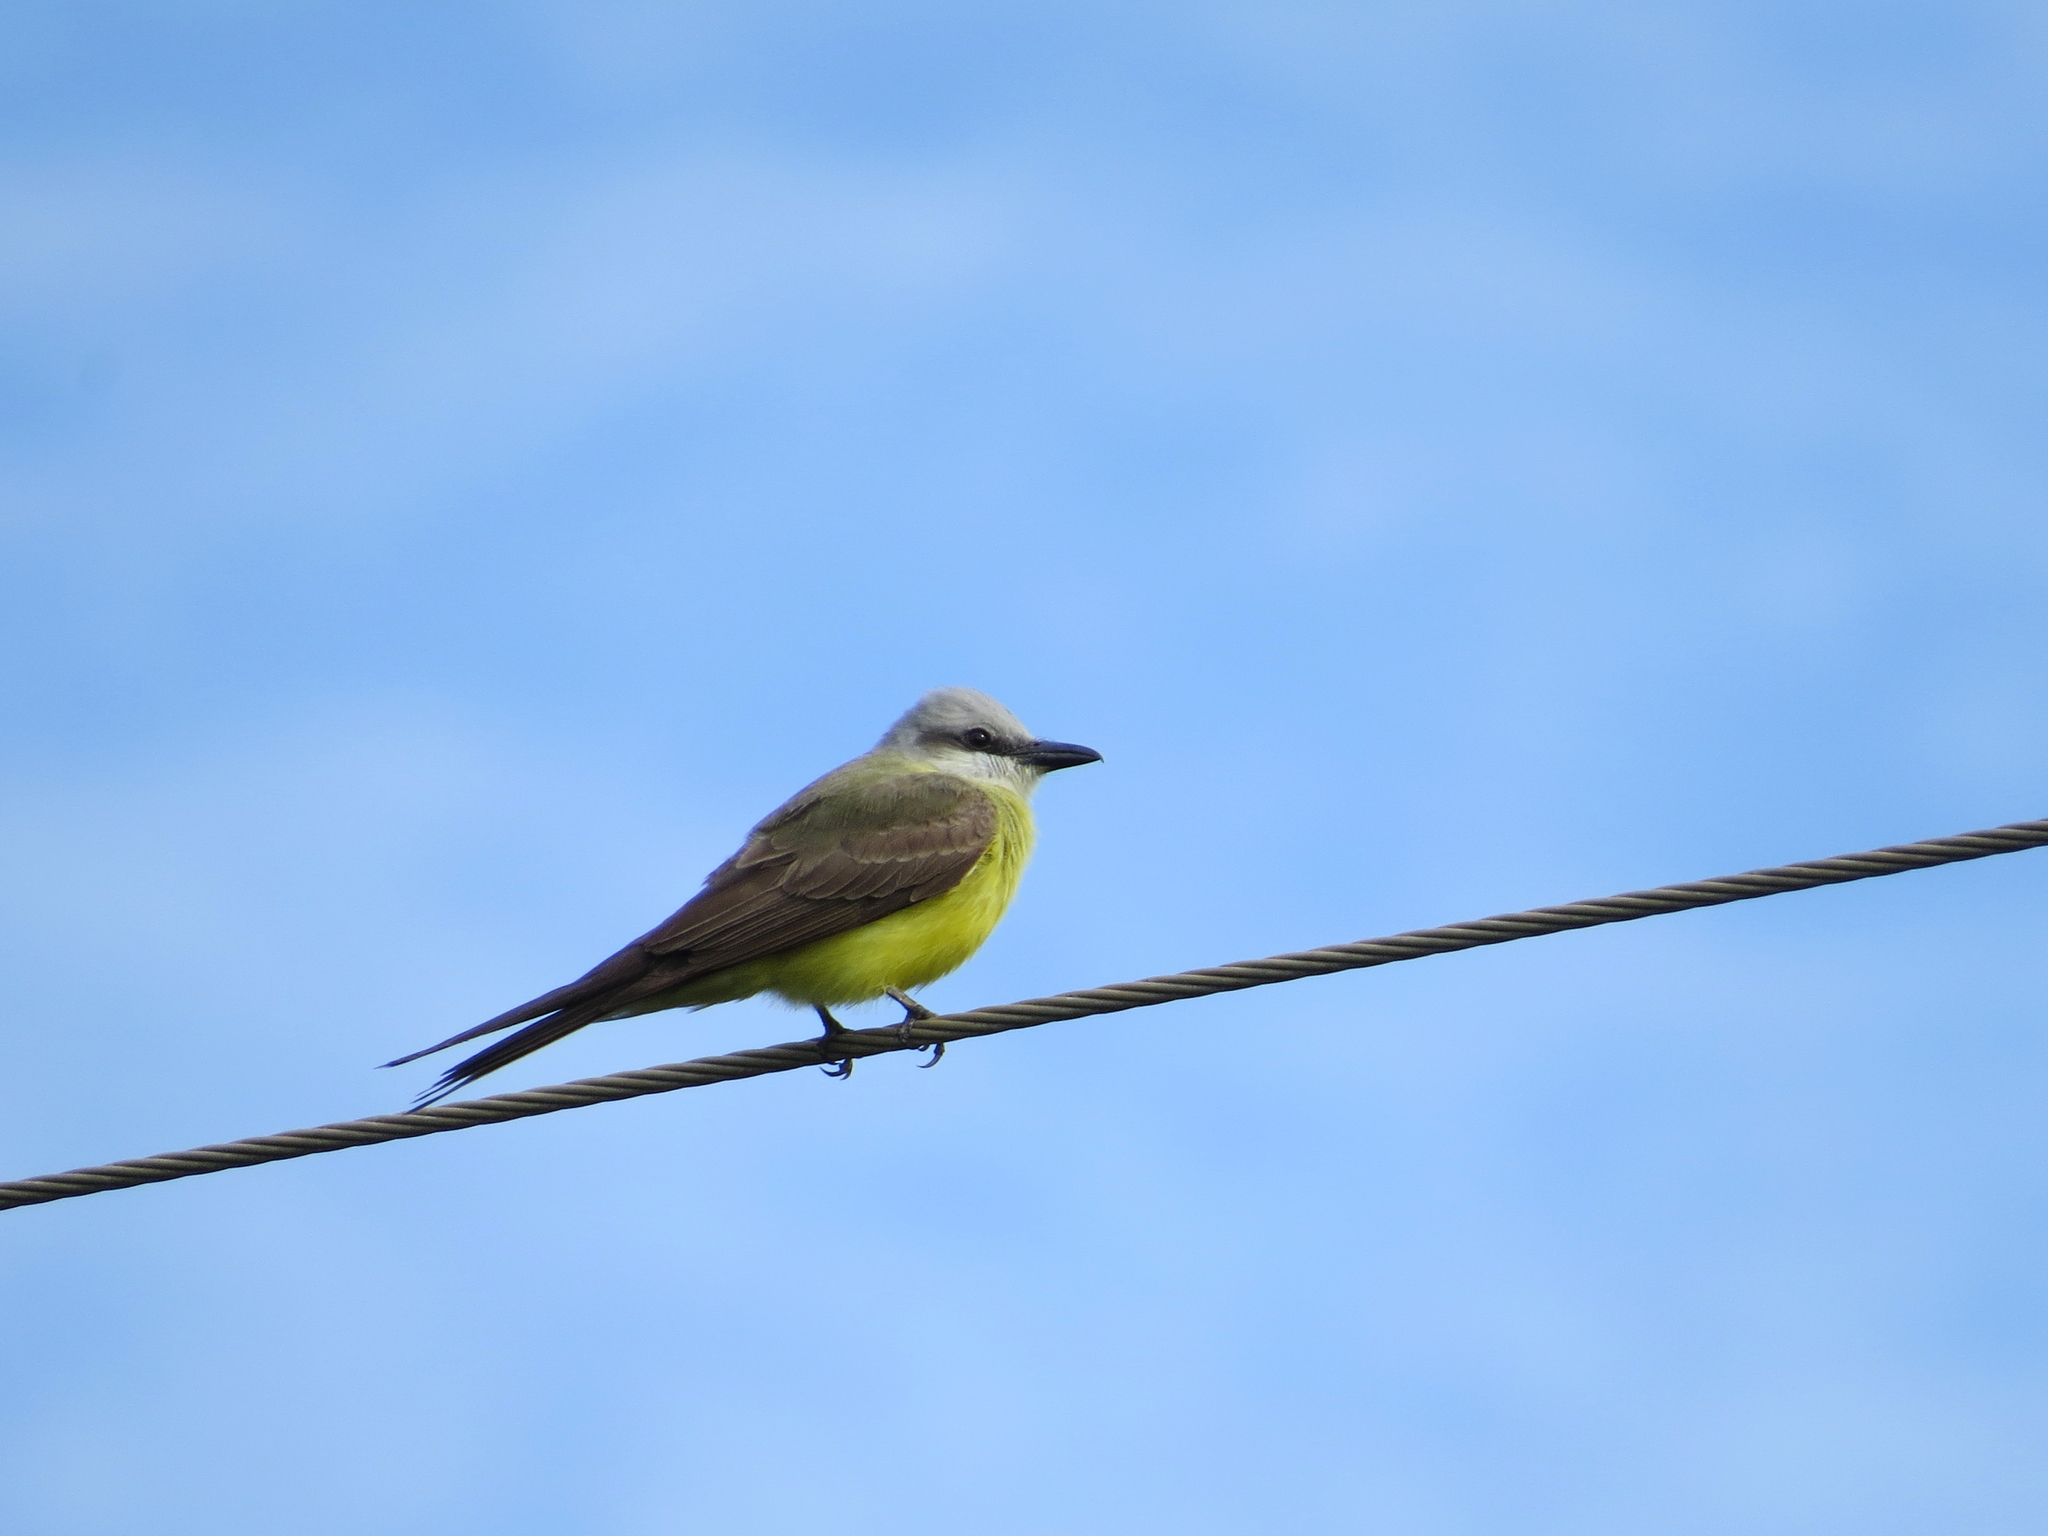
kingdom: Animalia
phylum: Chordata
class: Aves
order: Passeriformes
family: Tyrannidae
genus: Tyrannus
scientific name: Tyrannus albogularis
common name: White-throated kingbird
